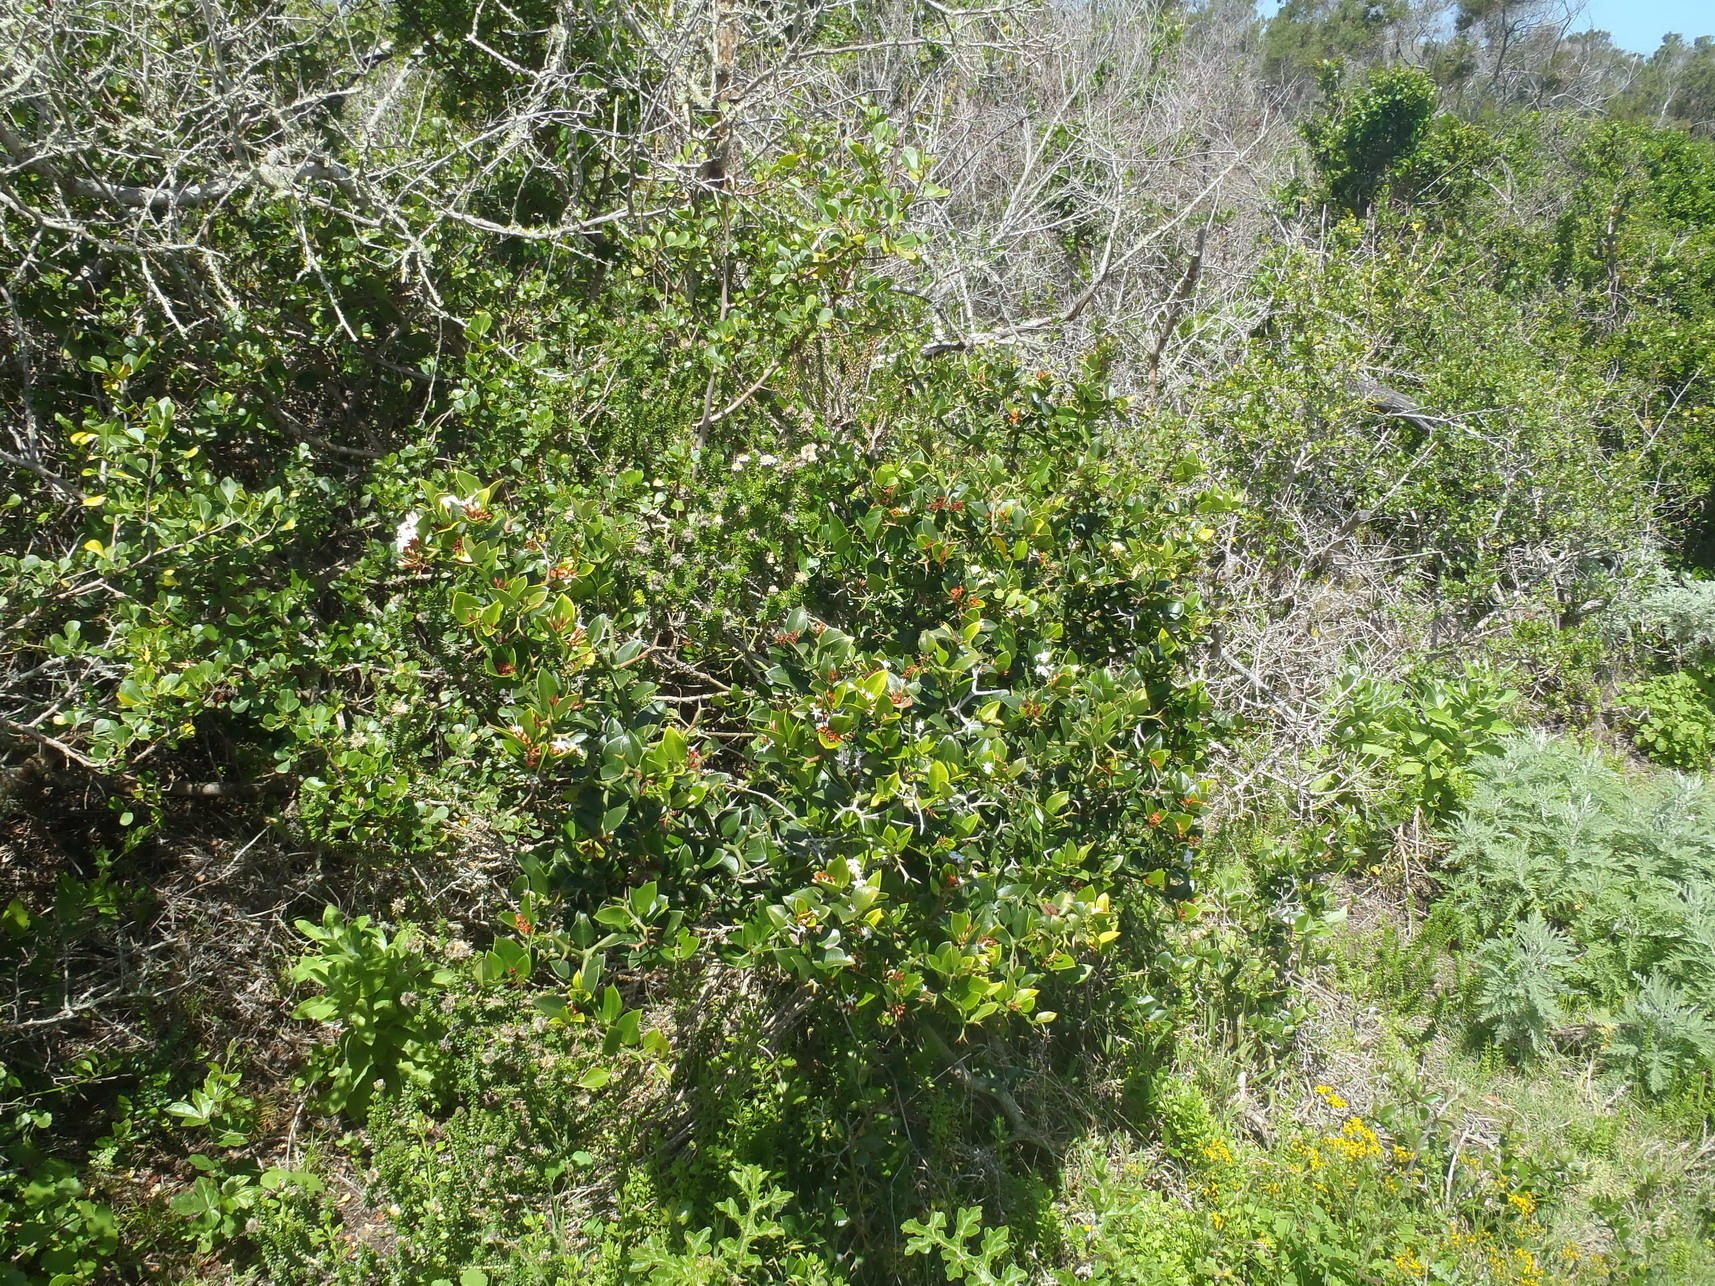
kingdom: Plantae
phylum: Tracheophyta
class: Magnoliopsida
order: Gentianales
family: Apocynaceae
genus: Carissa
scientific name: Carissa bispinosa
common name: Forest num-num
